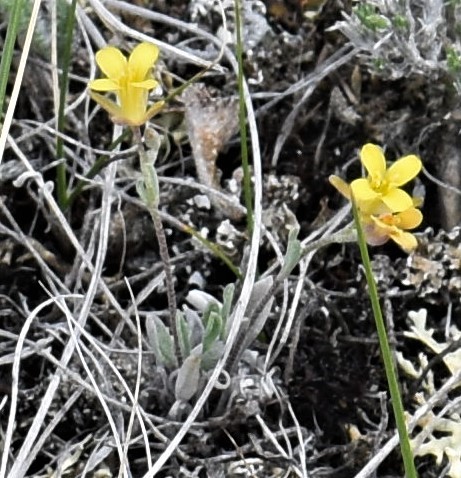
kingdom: Plantae
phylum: Tracheophyta
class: Magnoliopsida
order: Brassicales
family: Brassicaceae
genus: Physaria
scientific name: Physaria arenosa
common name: Great plains bladderpod
